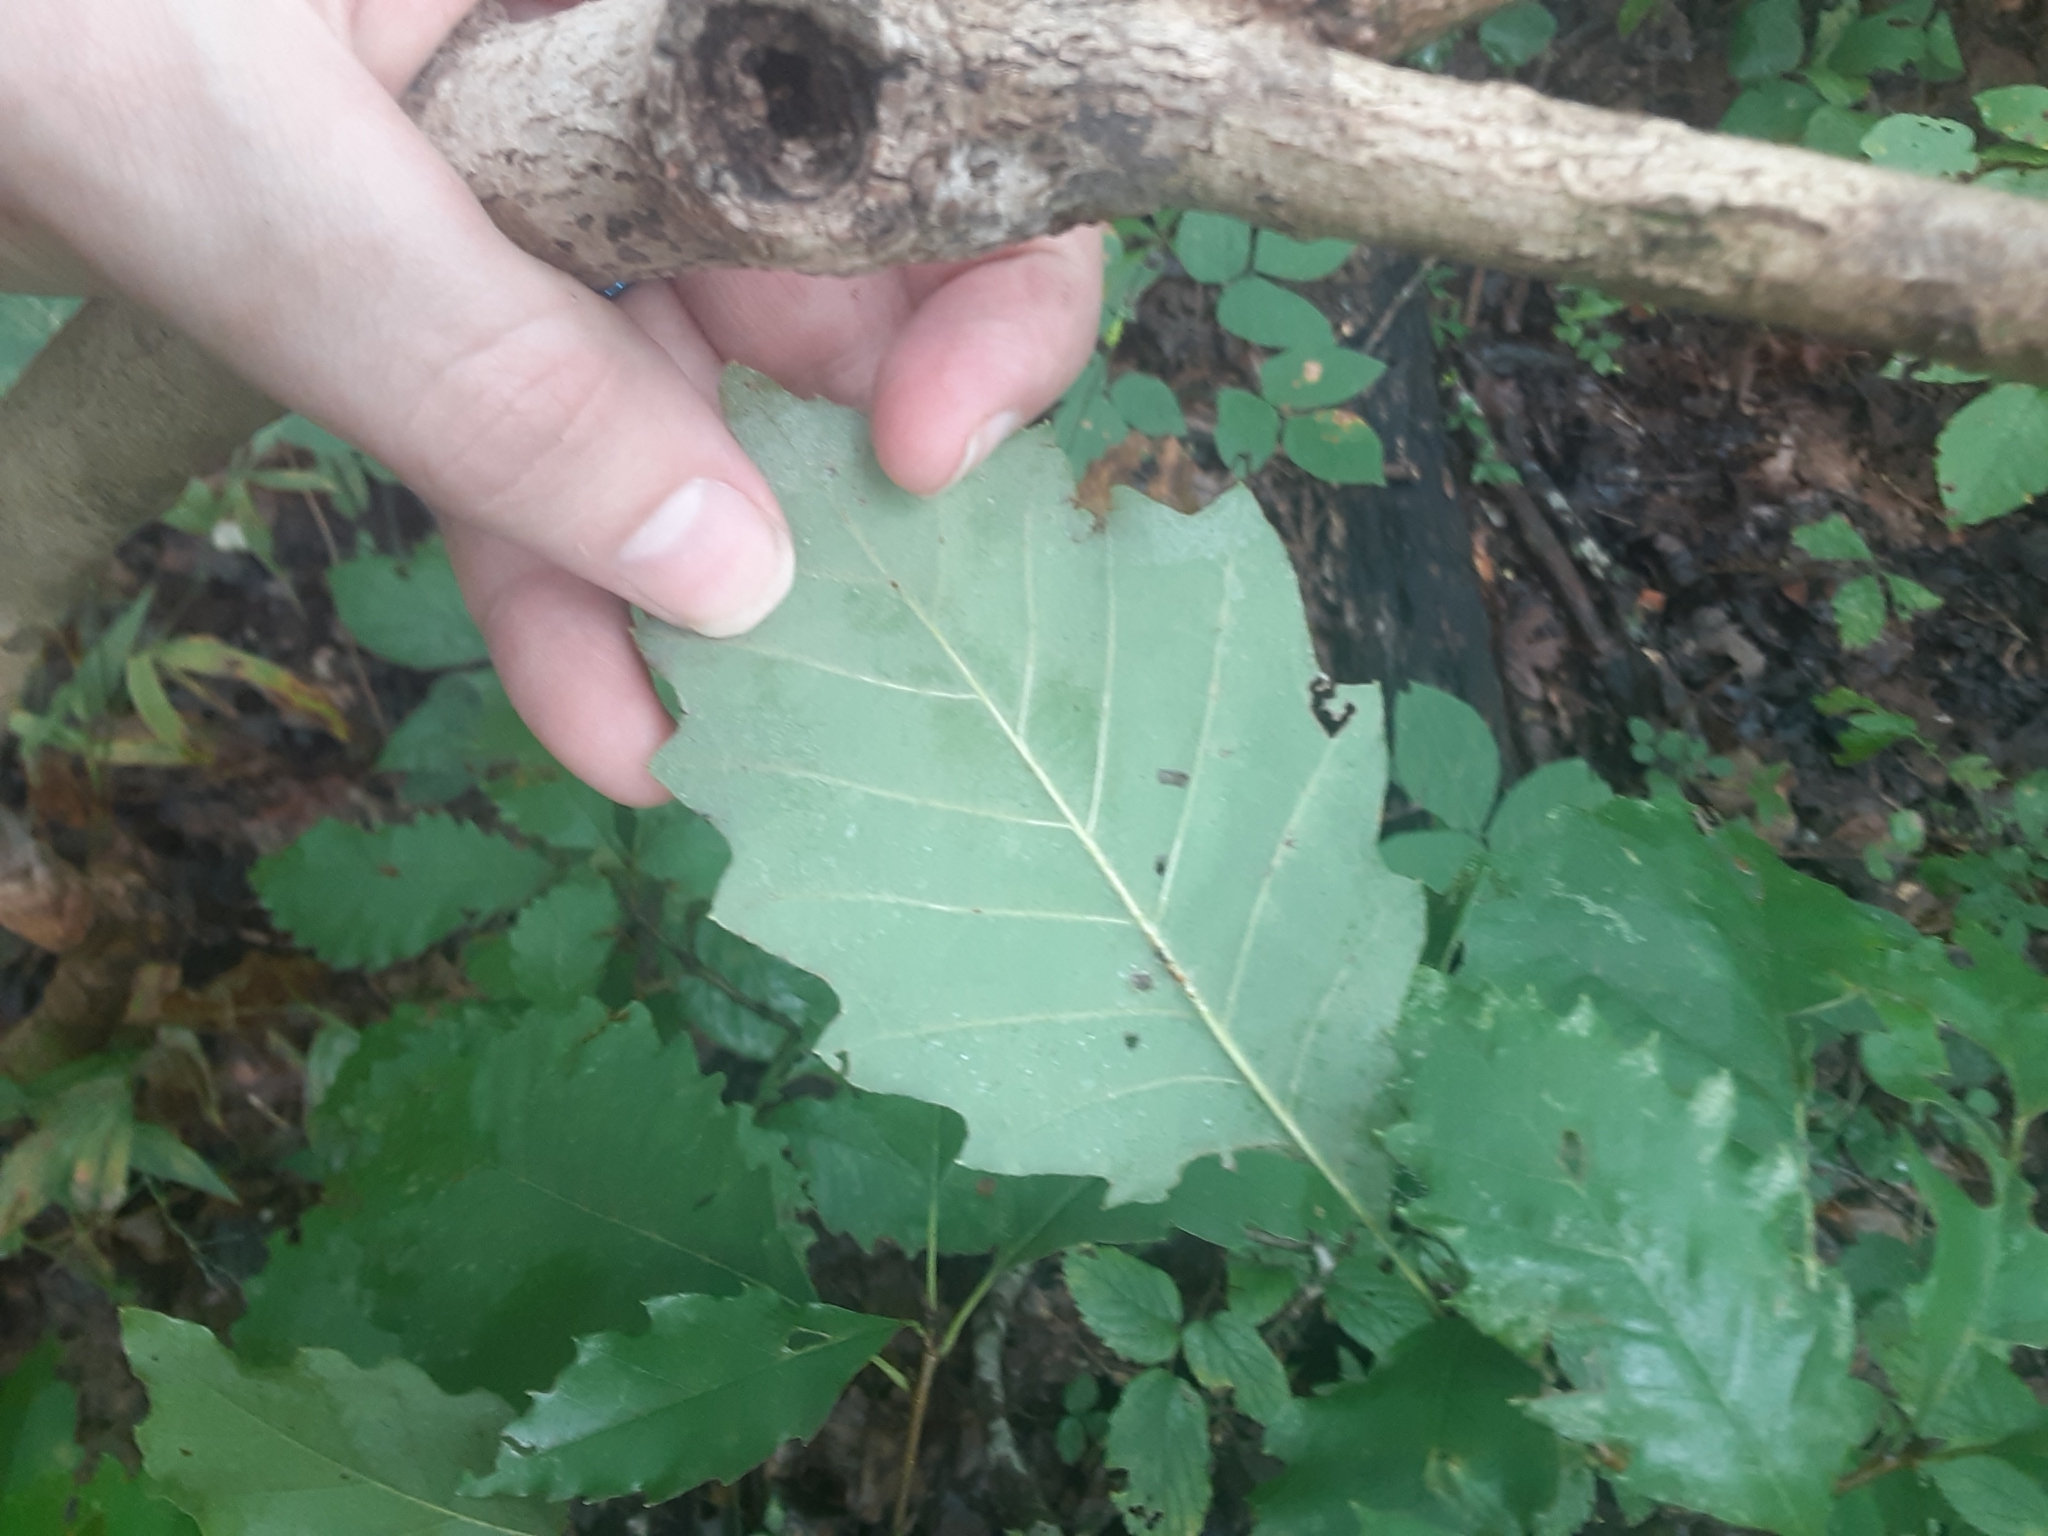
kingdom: Plantae
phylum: Tracheophyta
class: Magnoliopsida
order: Fagales
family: Fagaceae
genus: Quercus
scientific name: Quercus muehlenbergii
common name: Chinkapin oak
